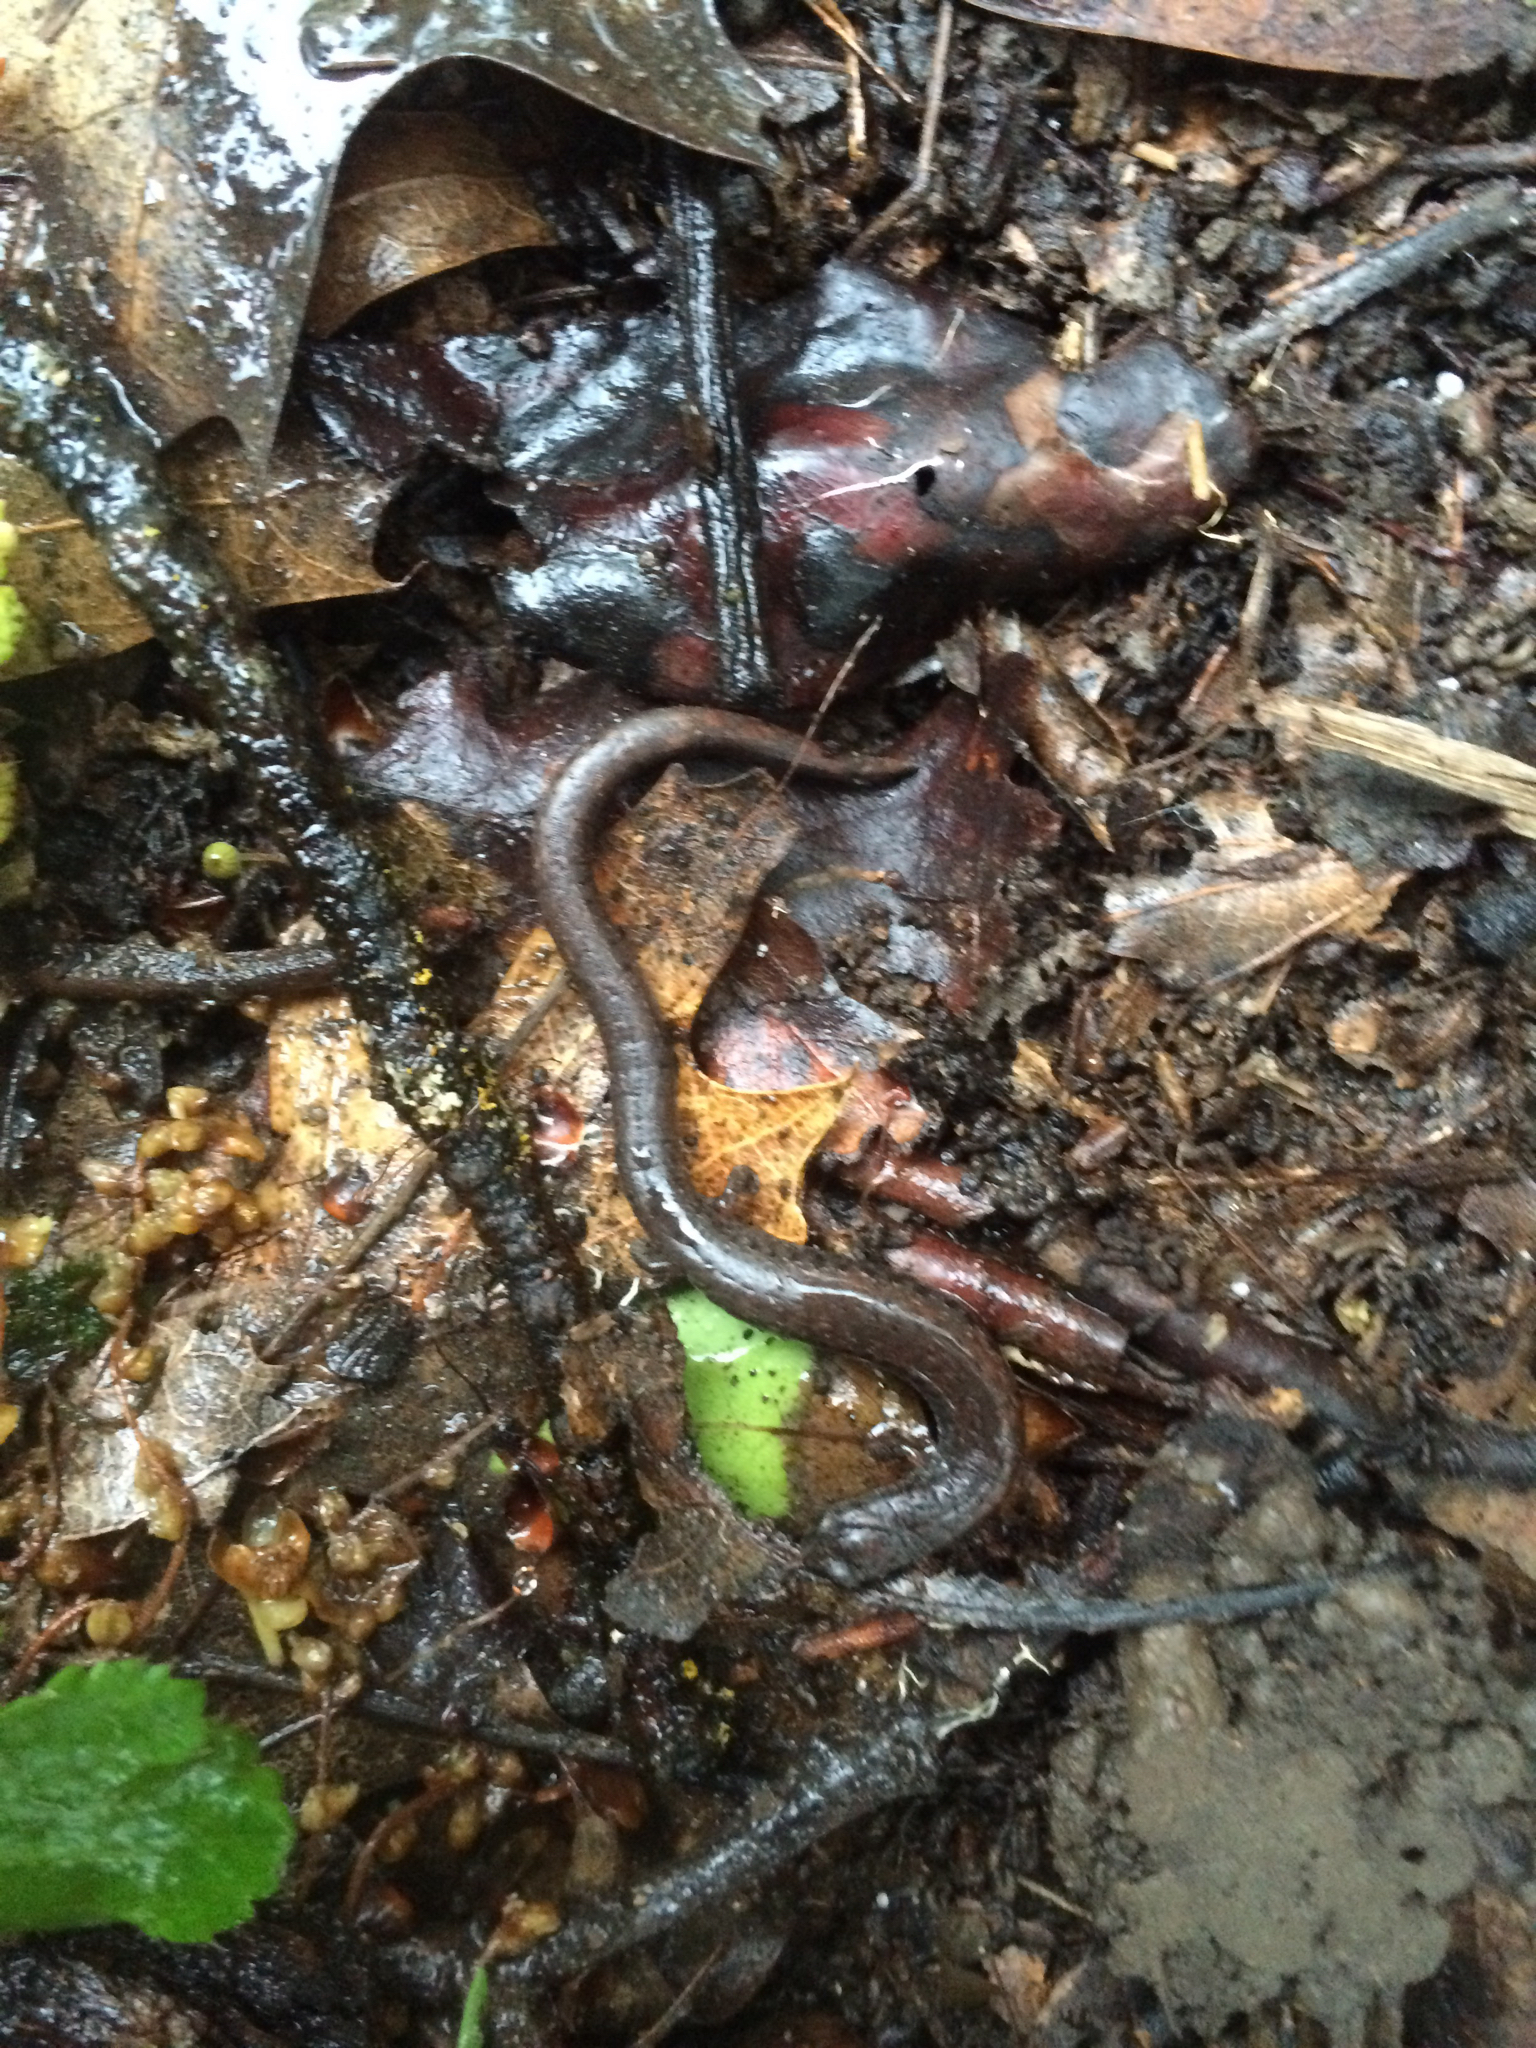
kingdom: Animalia
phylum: Chordata
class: Amphibia
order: Caudata
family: Plethodontidae
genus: Batrachoseps
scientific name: Batrachoseps attenuatus
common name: California slender salamander
